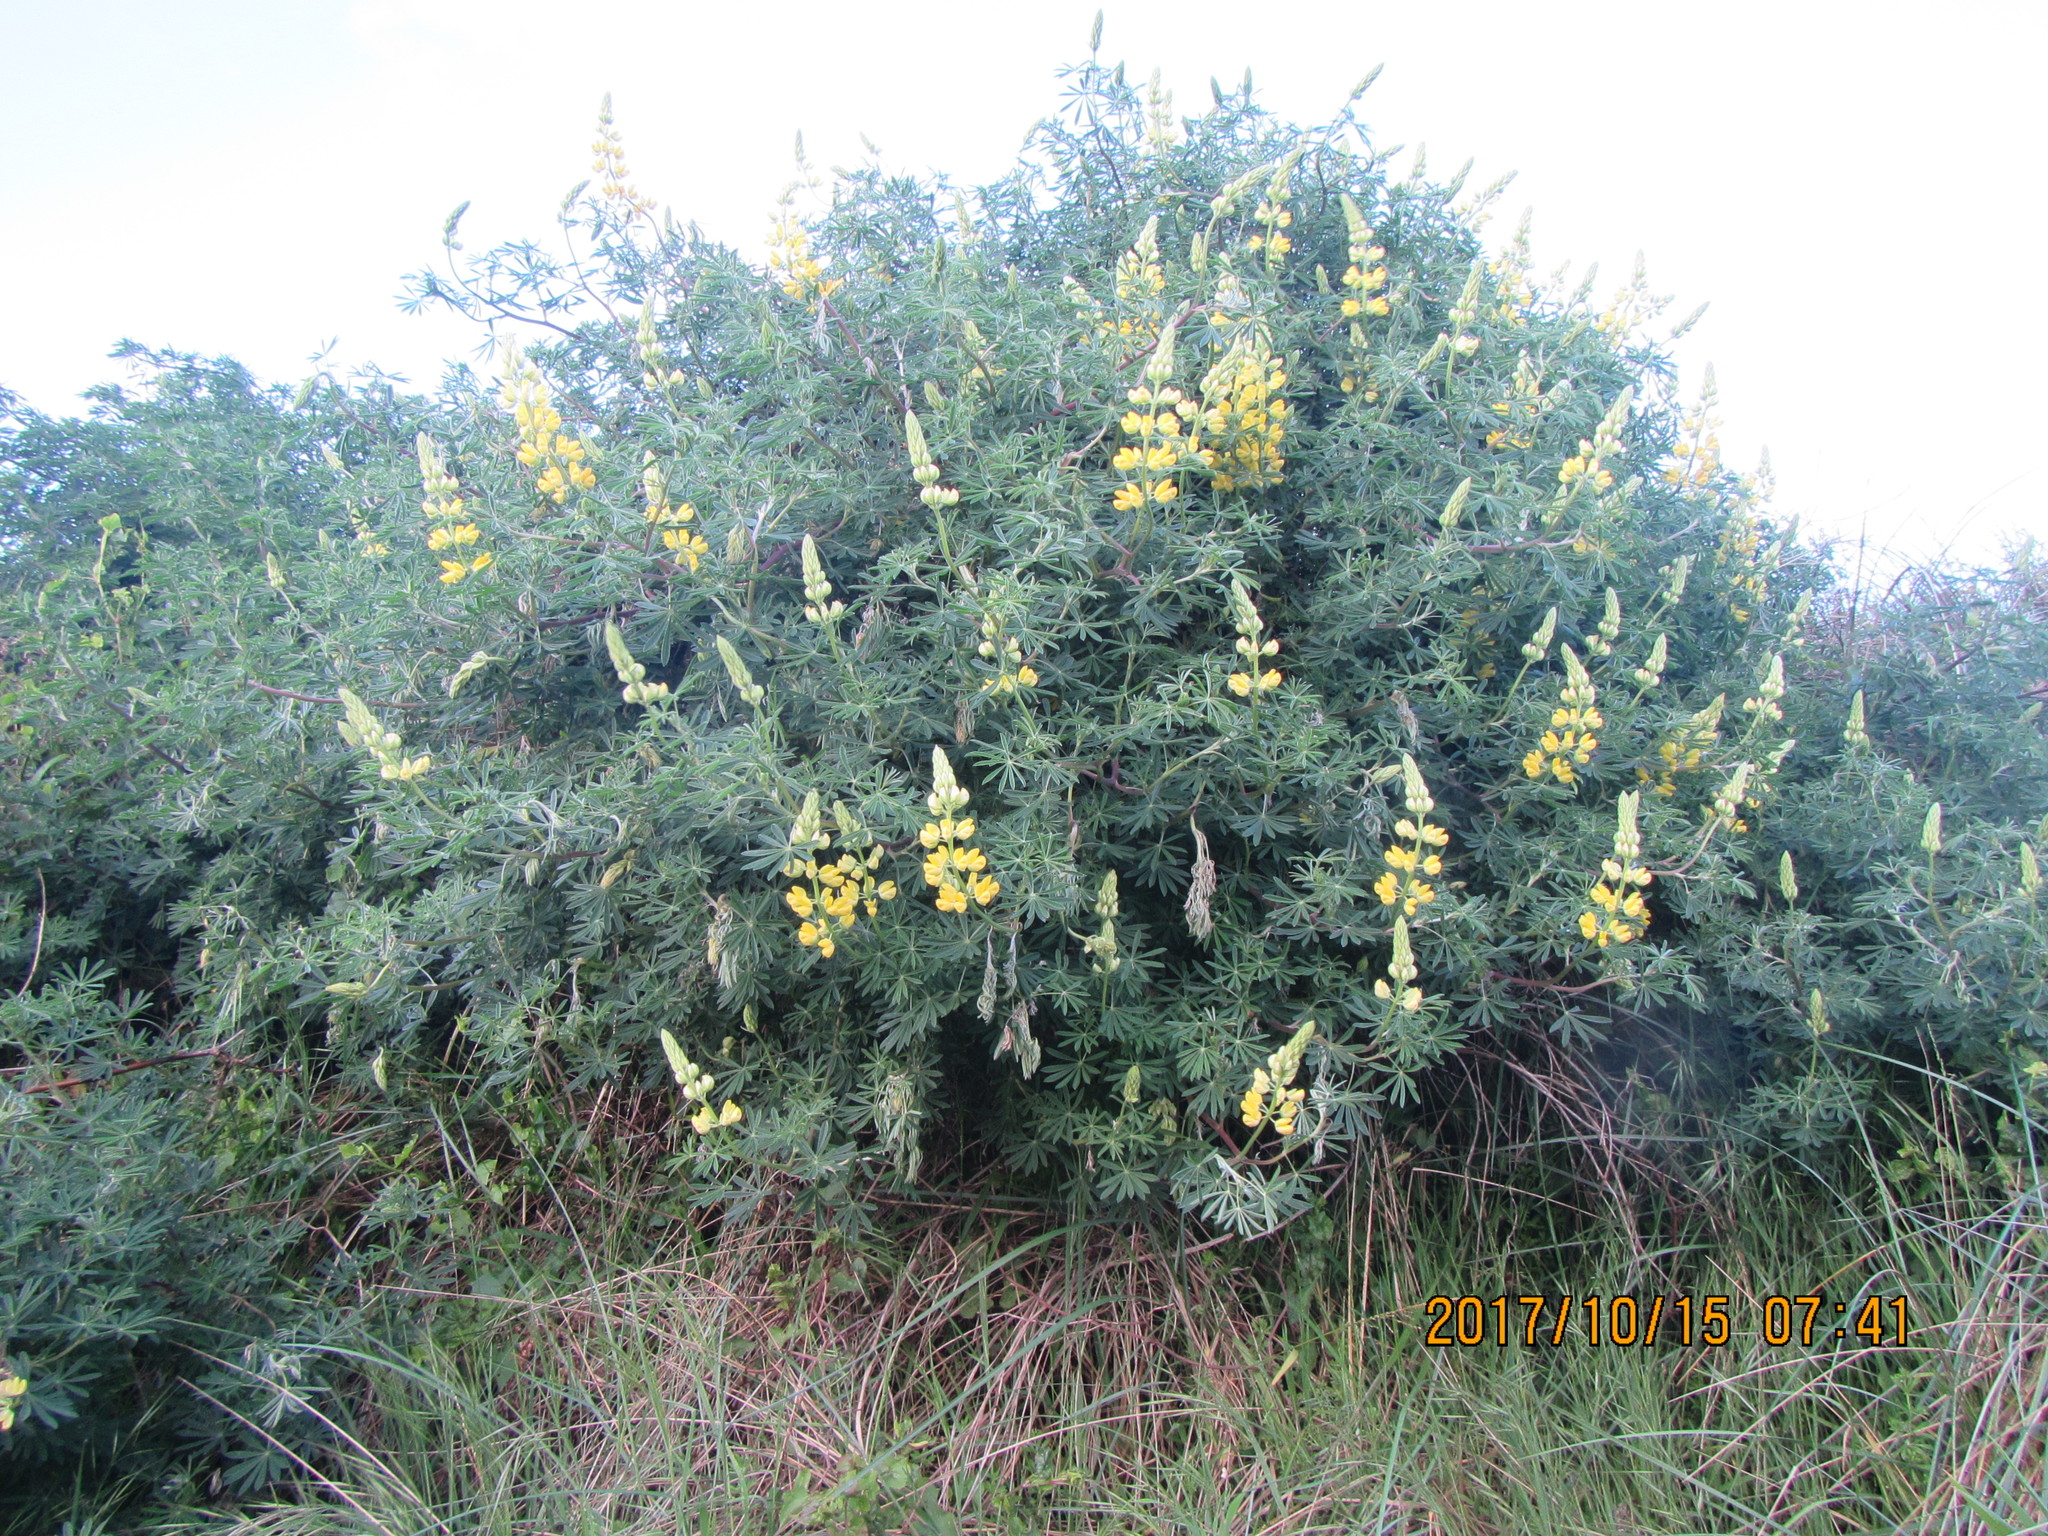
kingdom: Plantae
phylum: Tracheophyta
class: Magnoliopsida
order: Fabales
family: Fabaceae
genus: Lupinus
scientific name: Lupinus arboreus
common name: Yellow bush lupine
